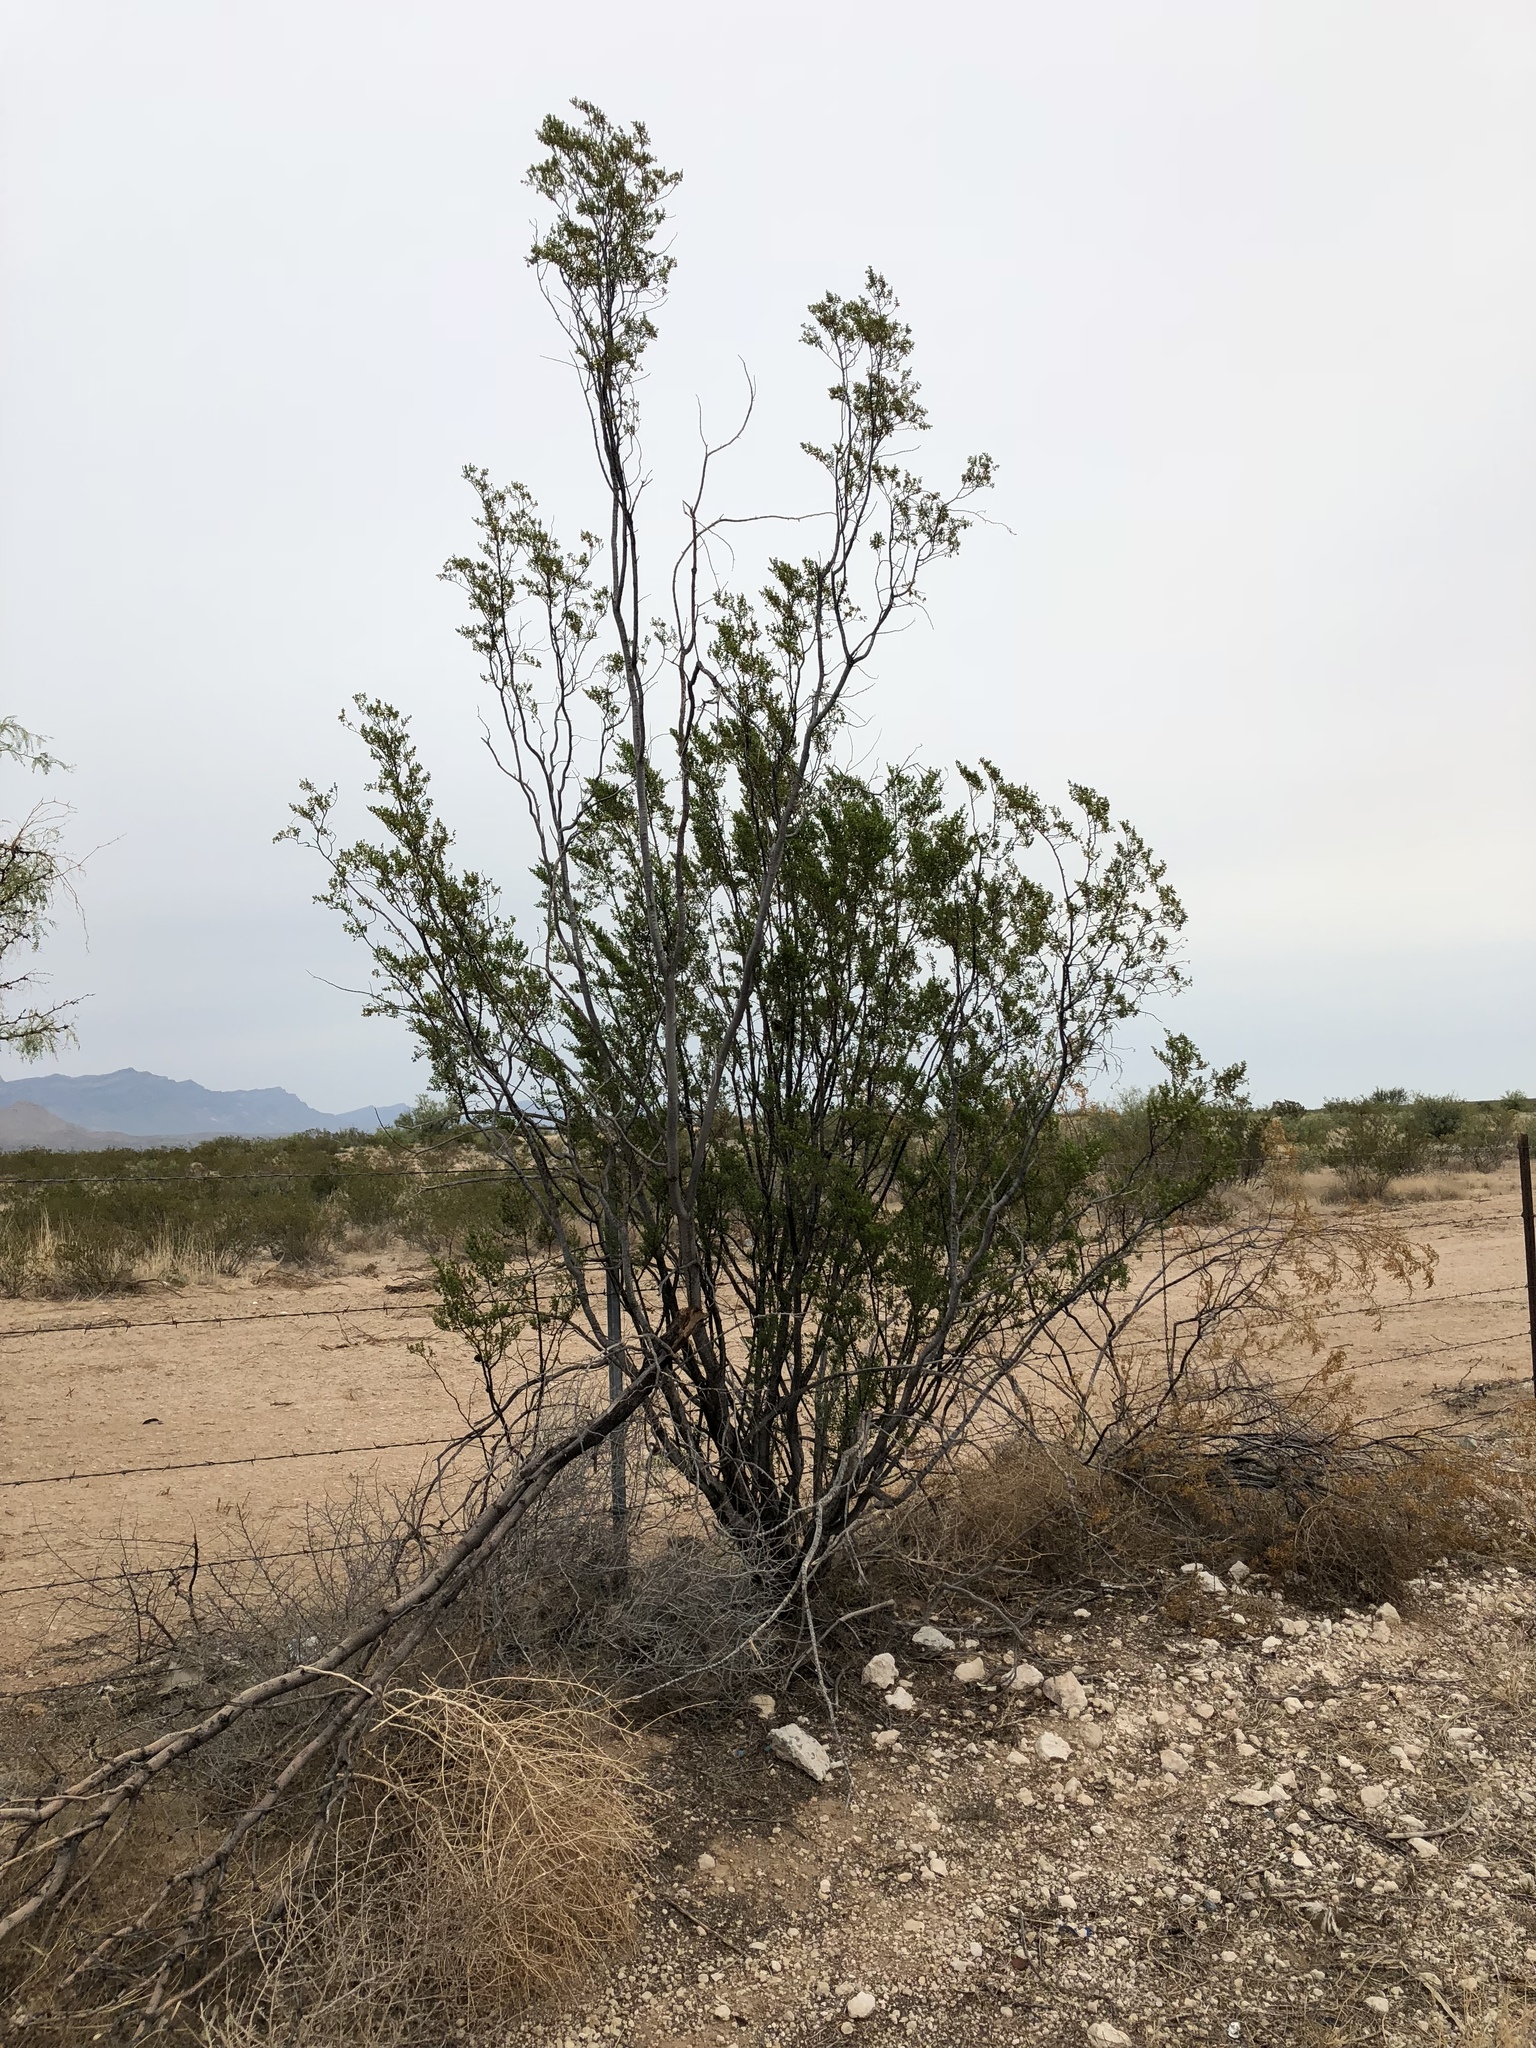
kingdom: Plantae
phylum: Tracheophyta
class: Magnoliopsida
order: Zygophyllales
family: Zygophyllaceae
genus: Larrea
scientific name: Larrea tridentata
